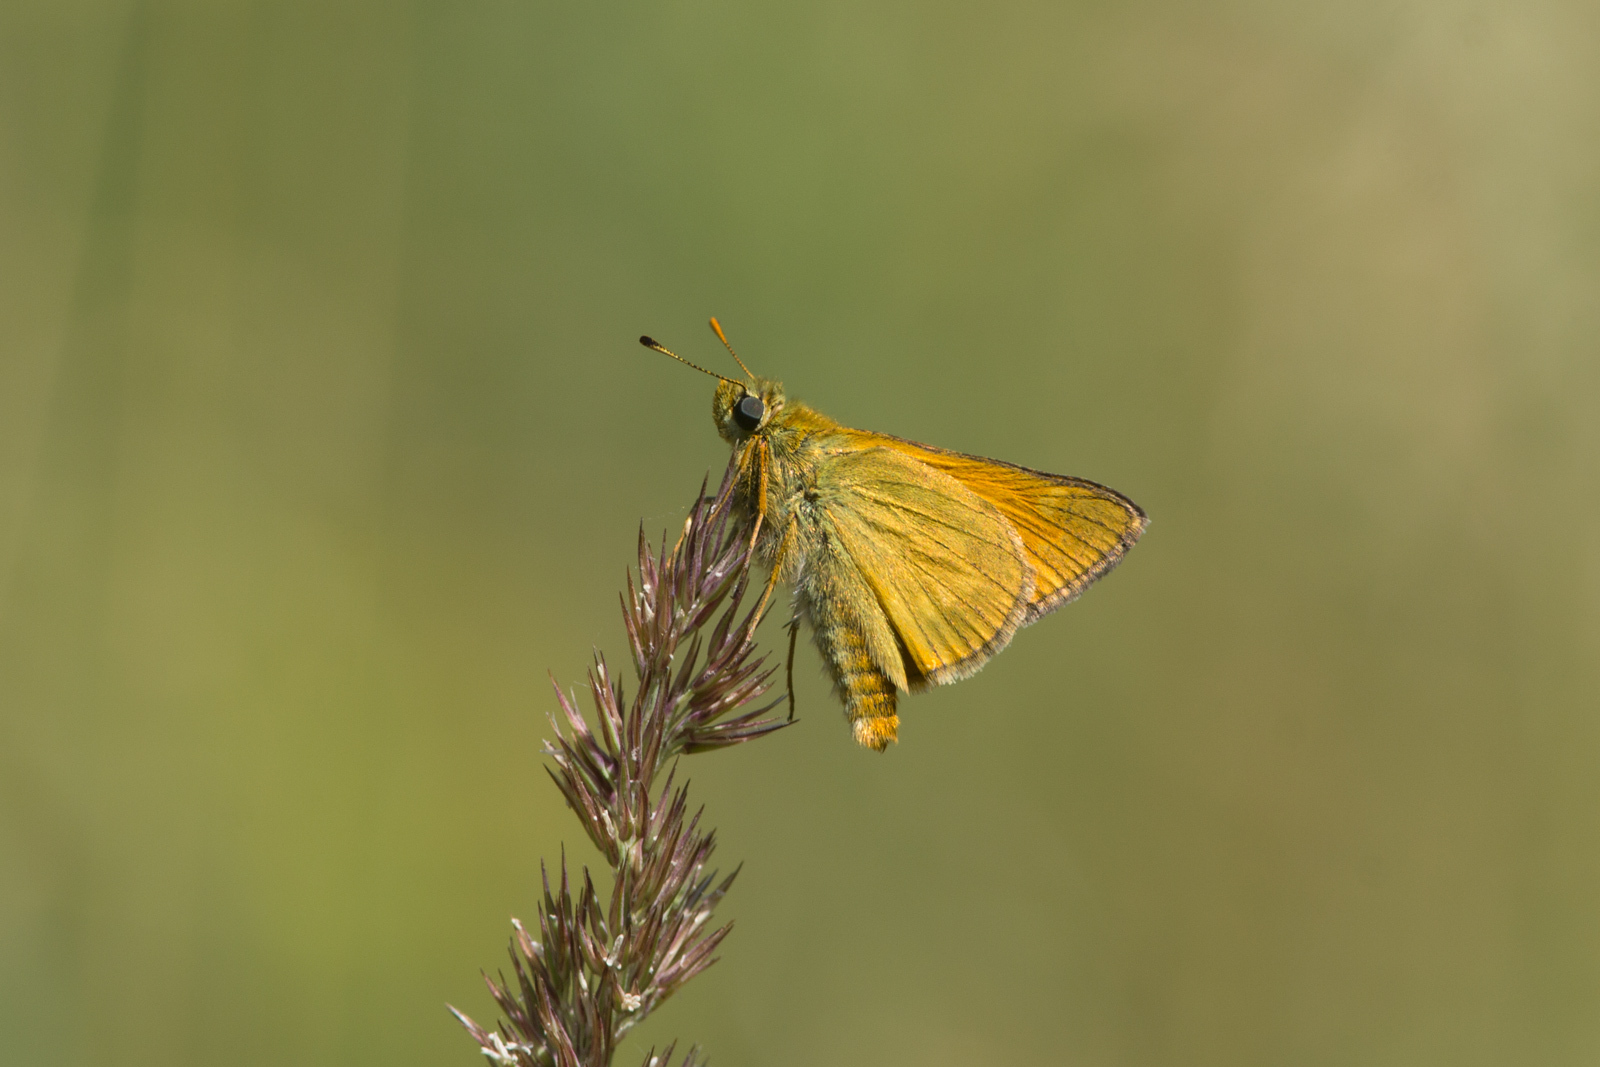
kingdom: Animalia
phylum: Arthropoda
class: Insecta
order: Lepidoptera
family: Hesperiidae
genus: Ochlodes
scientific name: Ochlodes venata
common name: Large skipper
